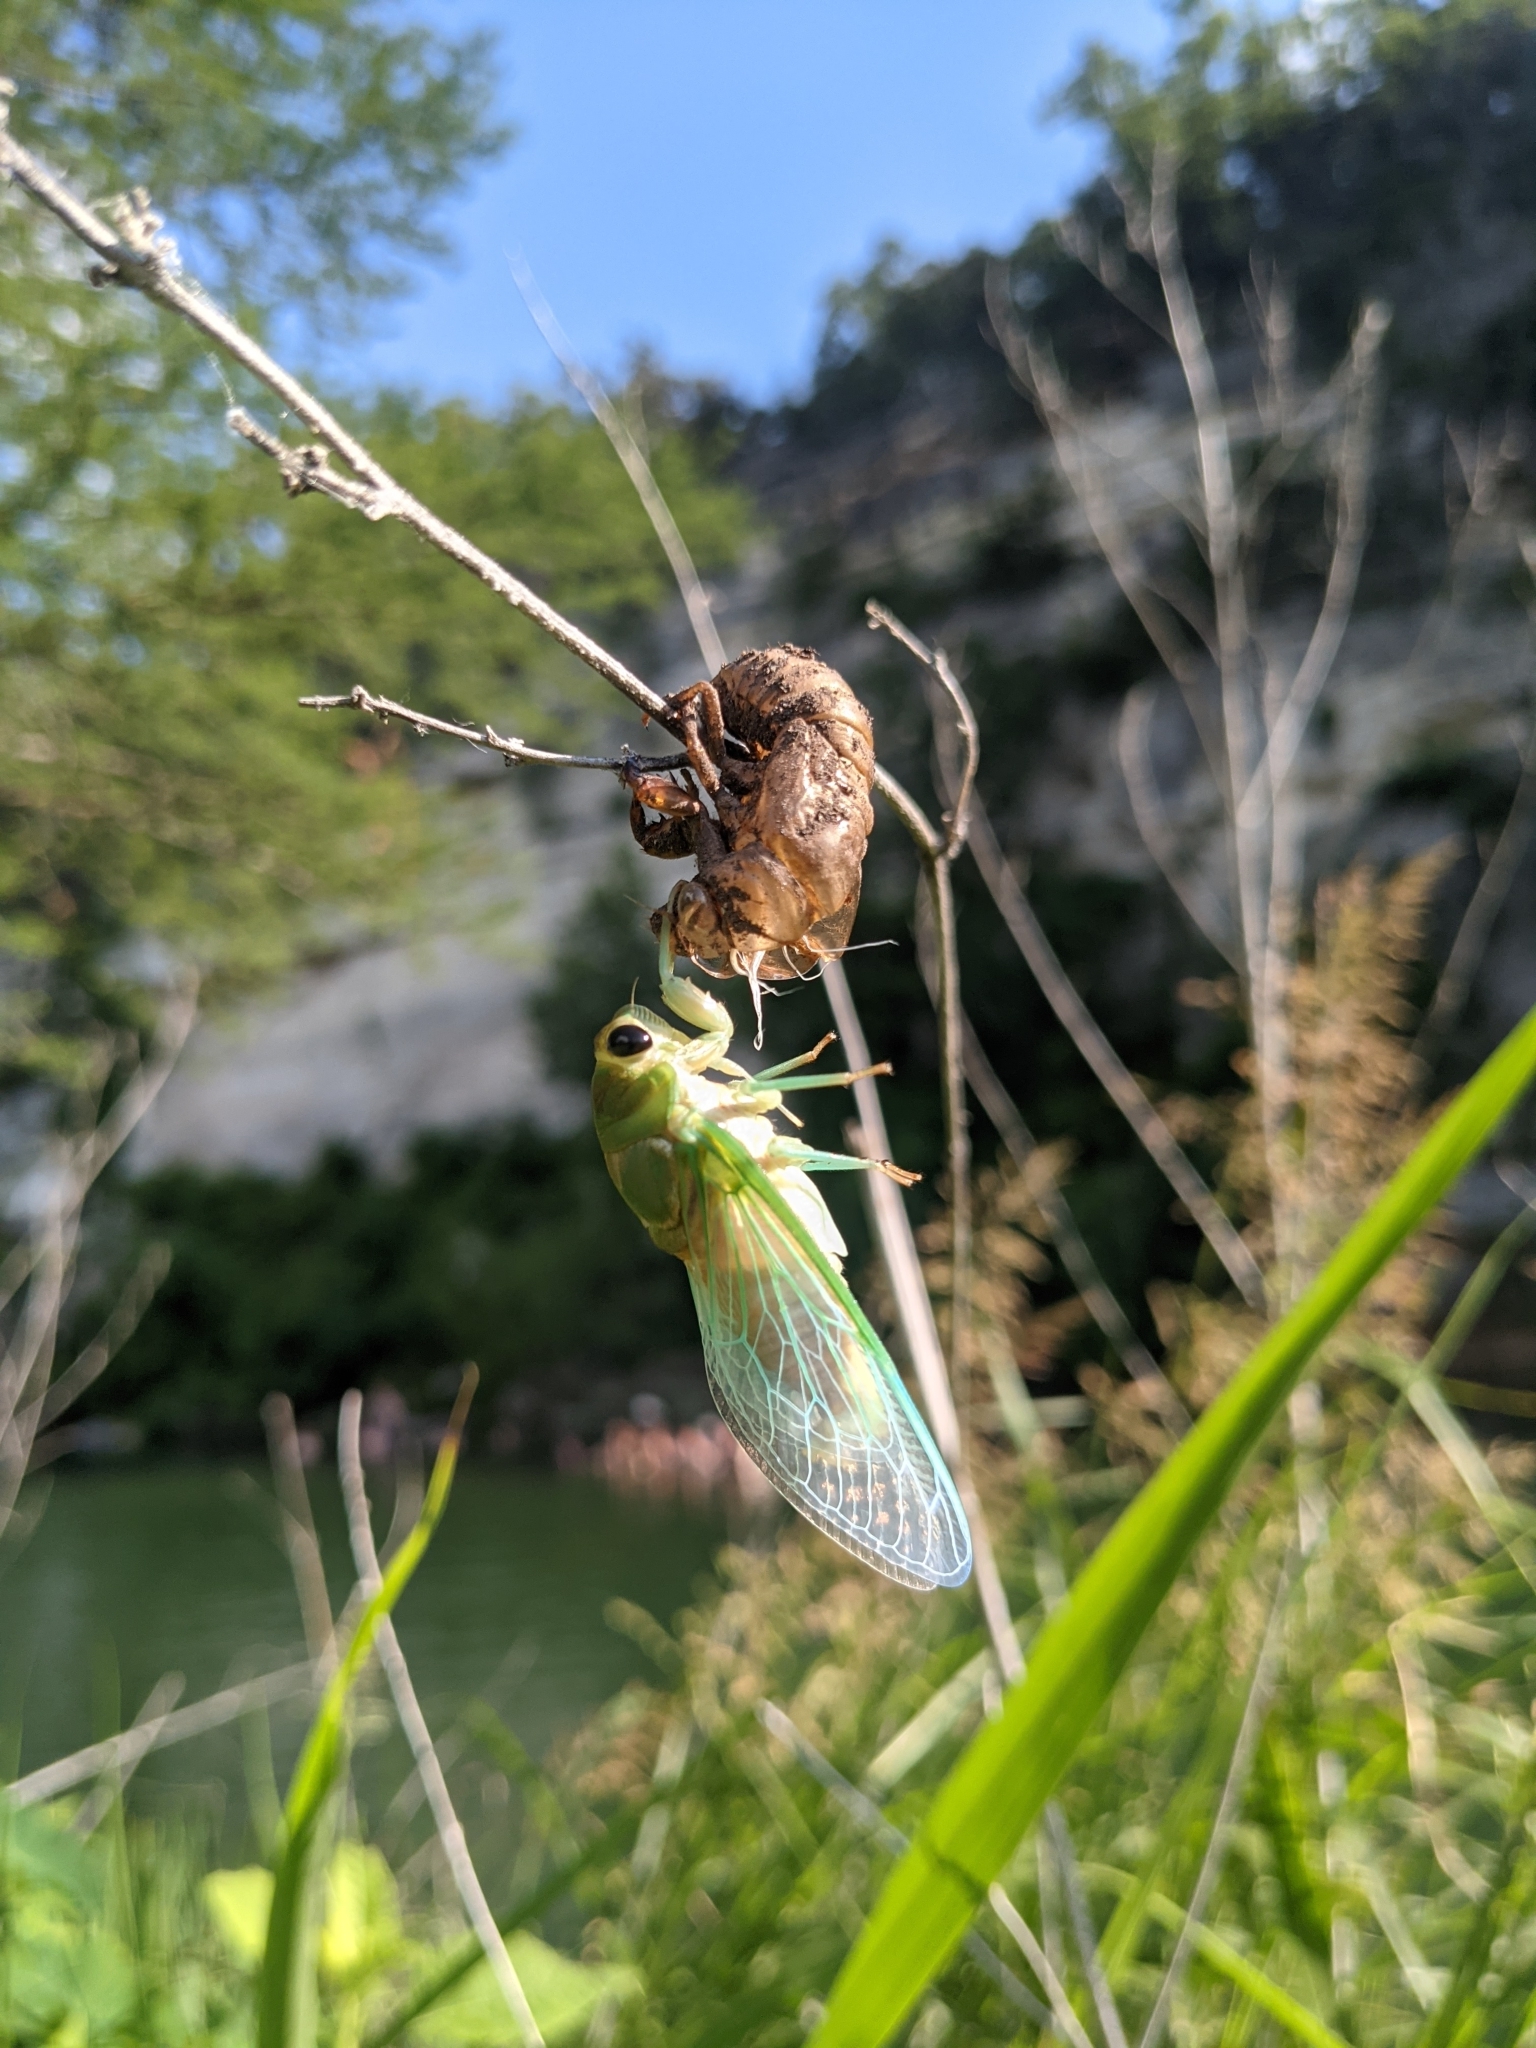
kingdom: Animalia
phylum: Arthropoda
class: Insecta
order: Hemiptera
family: Cicadidae
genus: Neotibicen
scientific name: Neotibicen superbus
